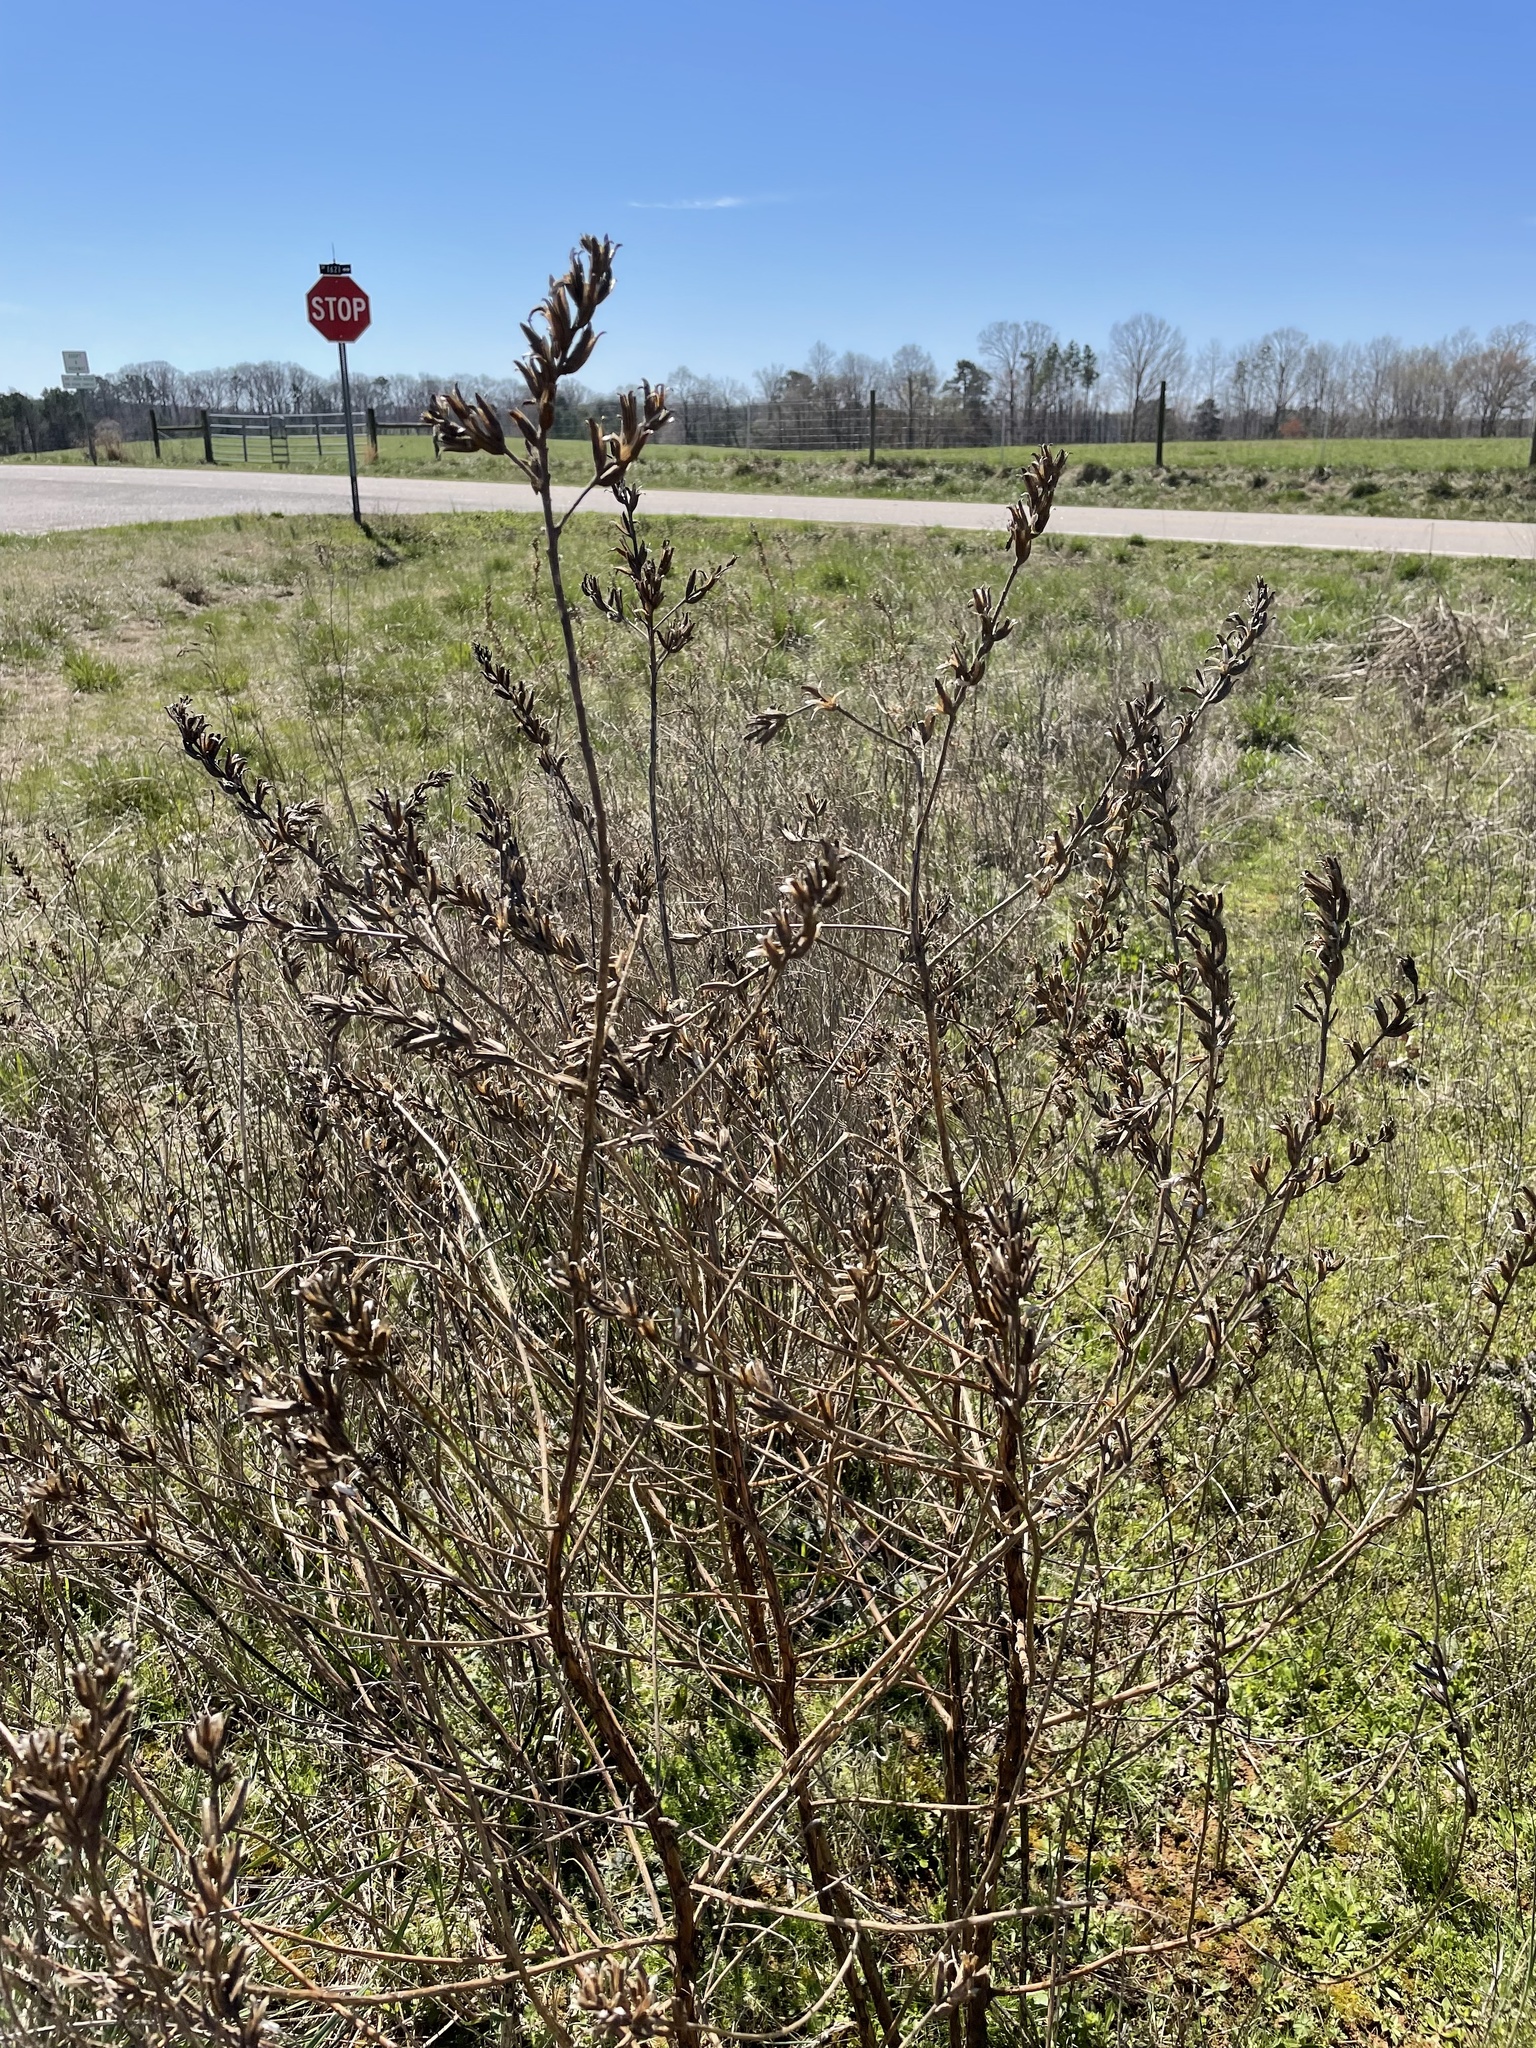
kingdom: Plantae
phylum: Tracheophyta
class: Magnoliopsida
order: Myrtales
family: Onagraceae
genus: Oenothera
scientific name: Oenothera biennis
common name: Common evening-primrose
